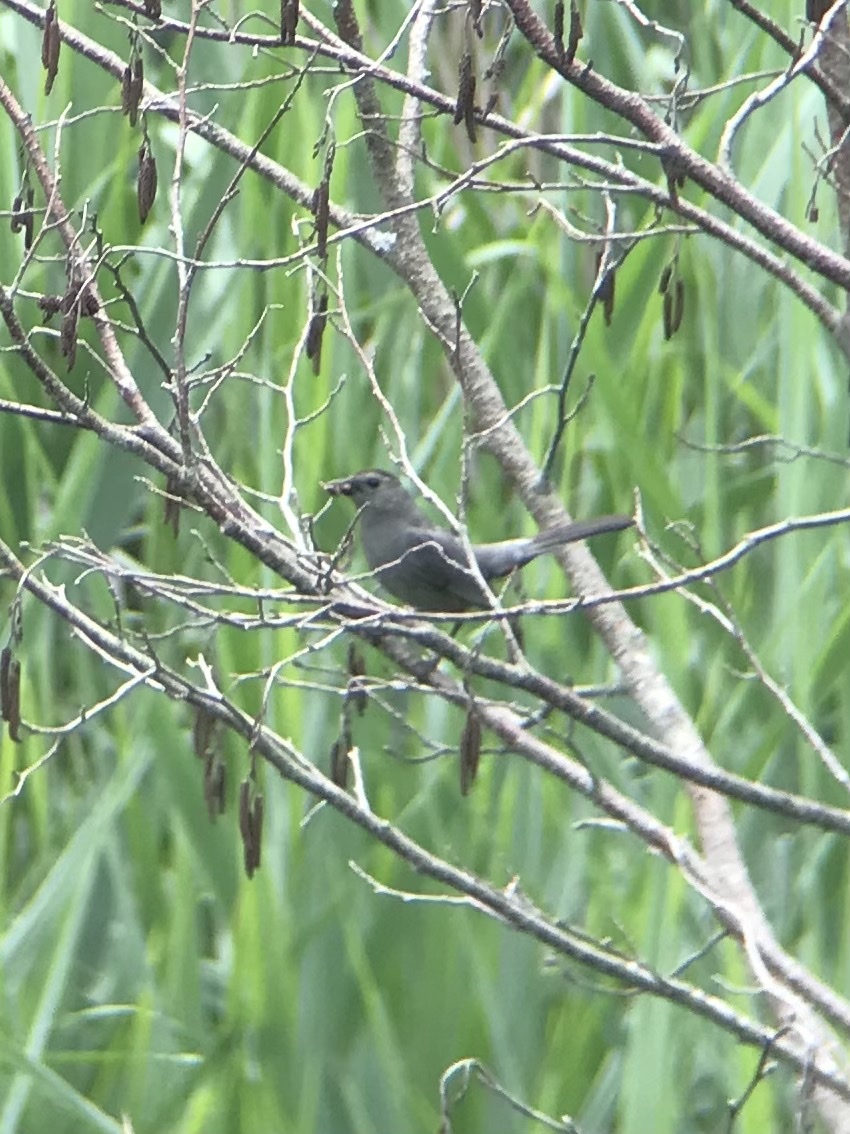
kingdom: Animalia
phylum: Chordata
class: Aves
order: Passeriformes
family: Mimidae
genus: Dumetella
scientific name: Dumetella carolinensis
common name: Gray catbird
